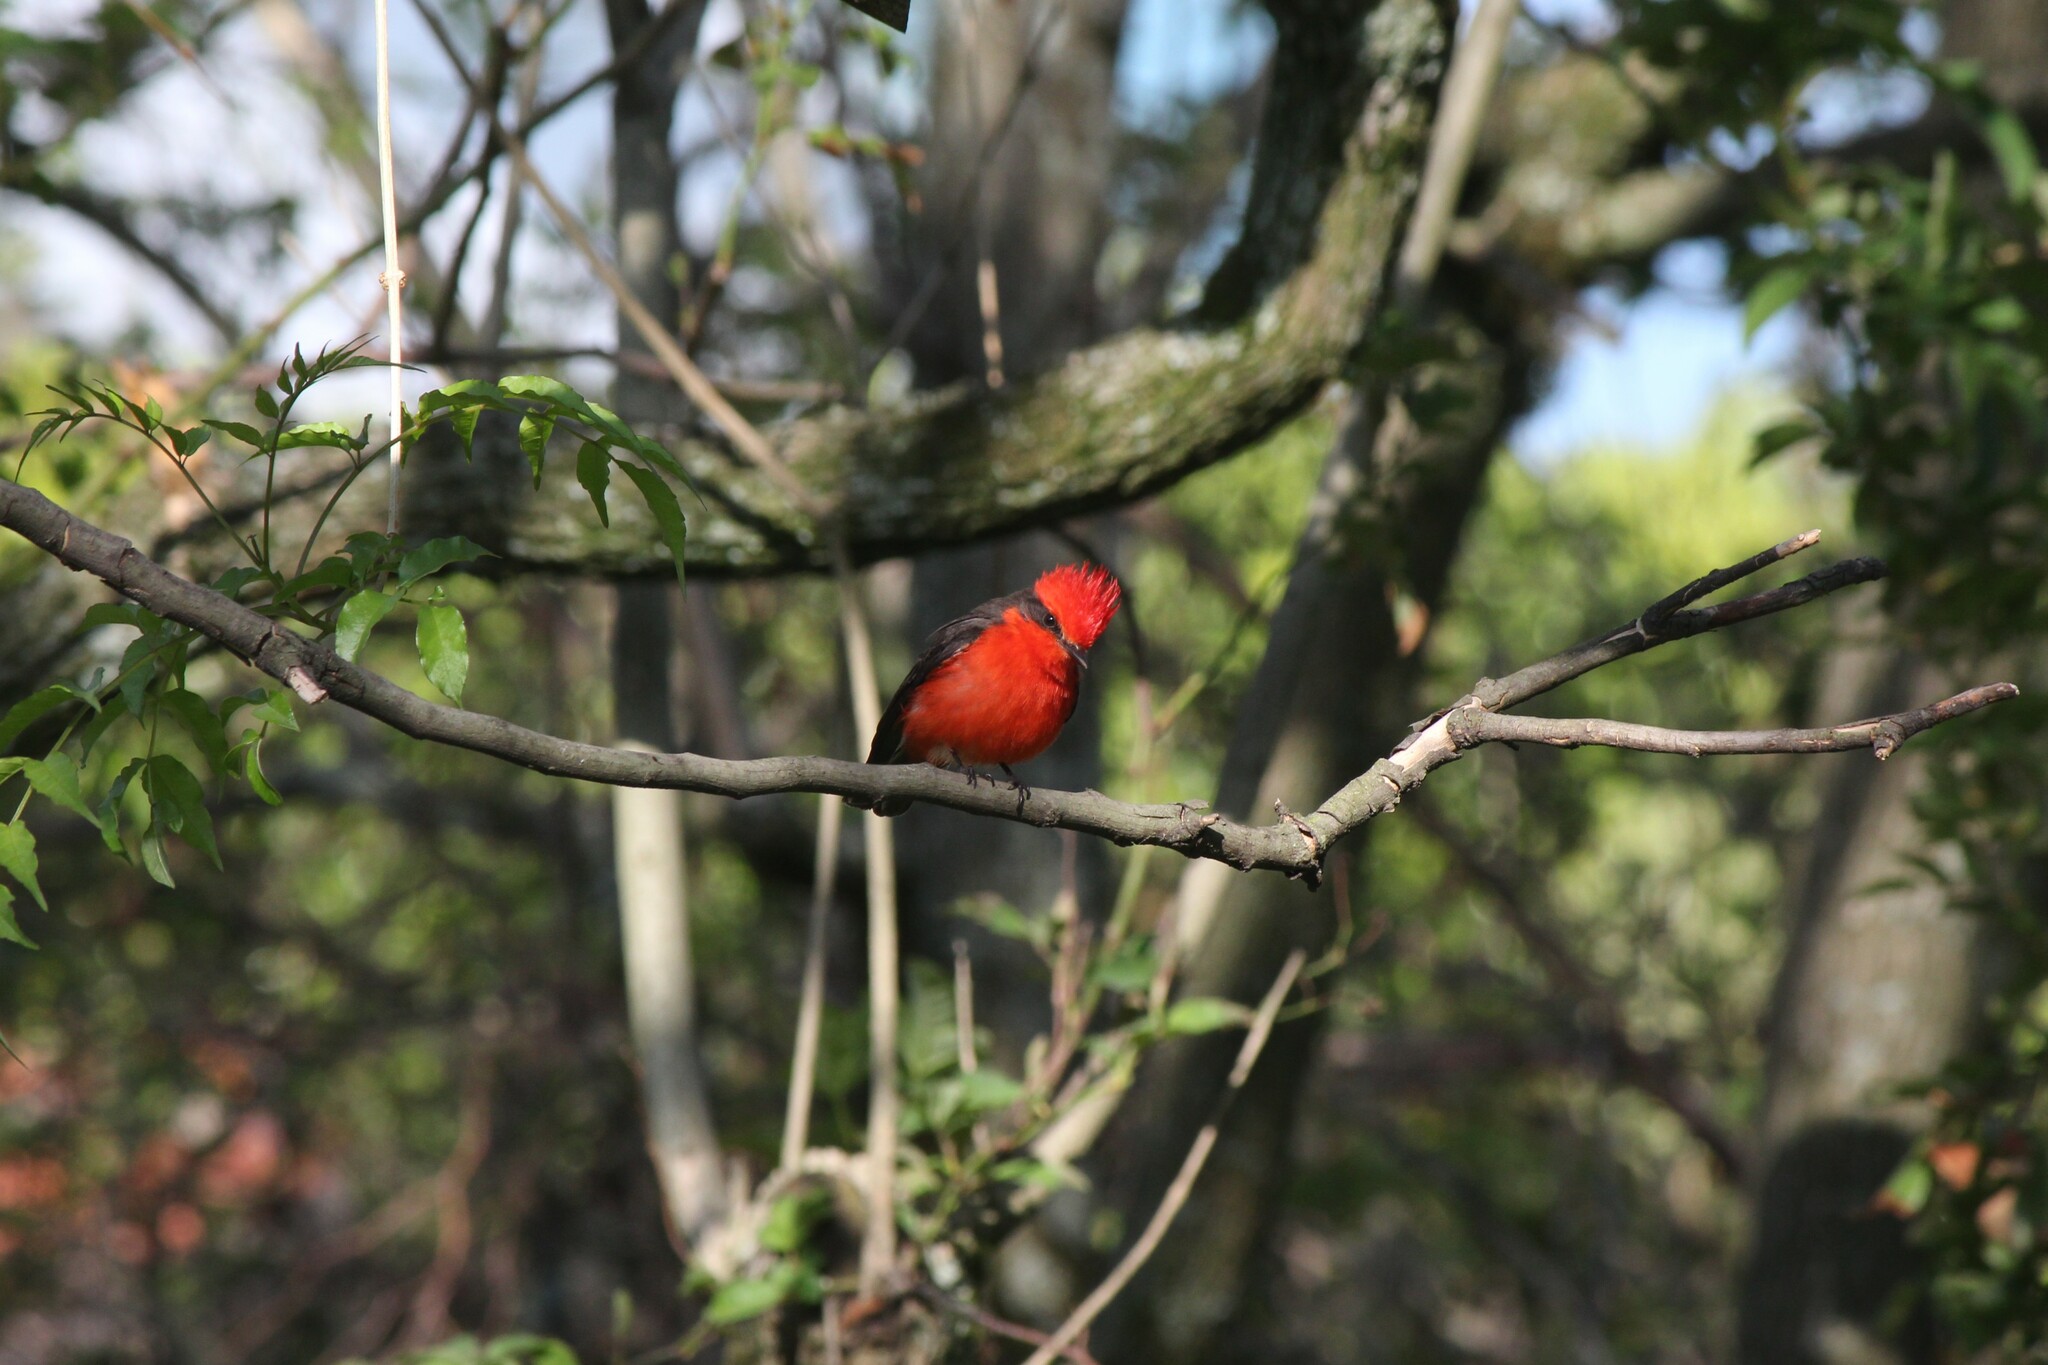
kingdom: Animalia
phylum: Chordata
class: Aves
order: Passeriformes
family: Tyrannidae
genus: Pyrocephalus
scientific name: Pyrocephalus rubinus
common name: Vermilion flycatcher
